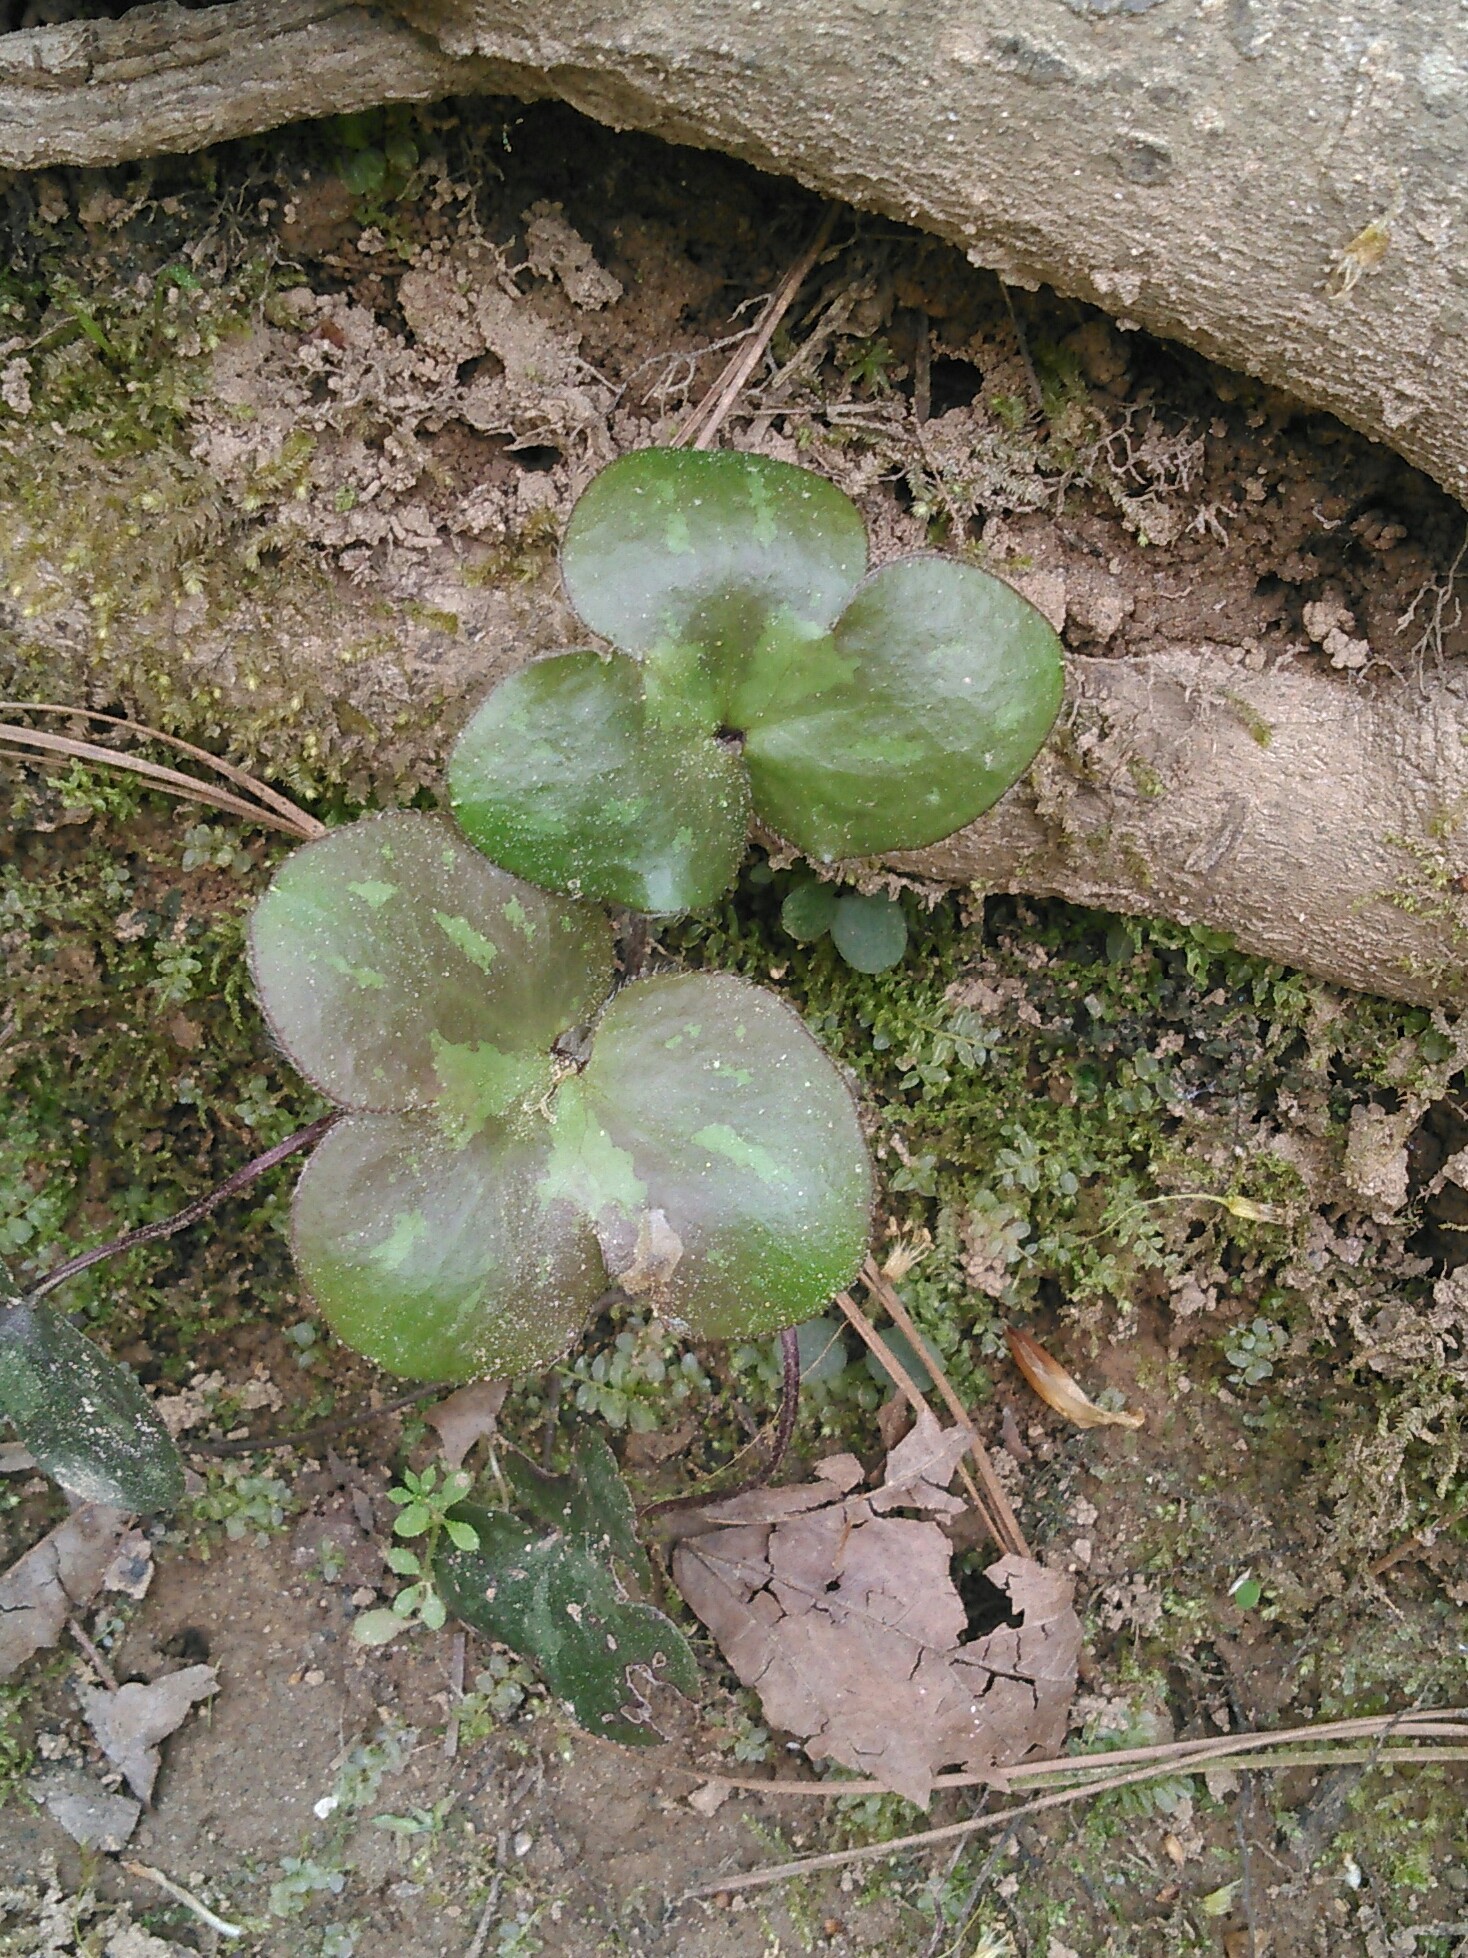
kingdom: Plantae
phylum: Tracheophyta
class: Magnoliopsida
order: Ranunculales
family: Ranunculaceae
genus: Hepatica
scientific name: Hepatica americana
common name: American hepatica
